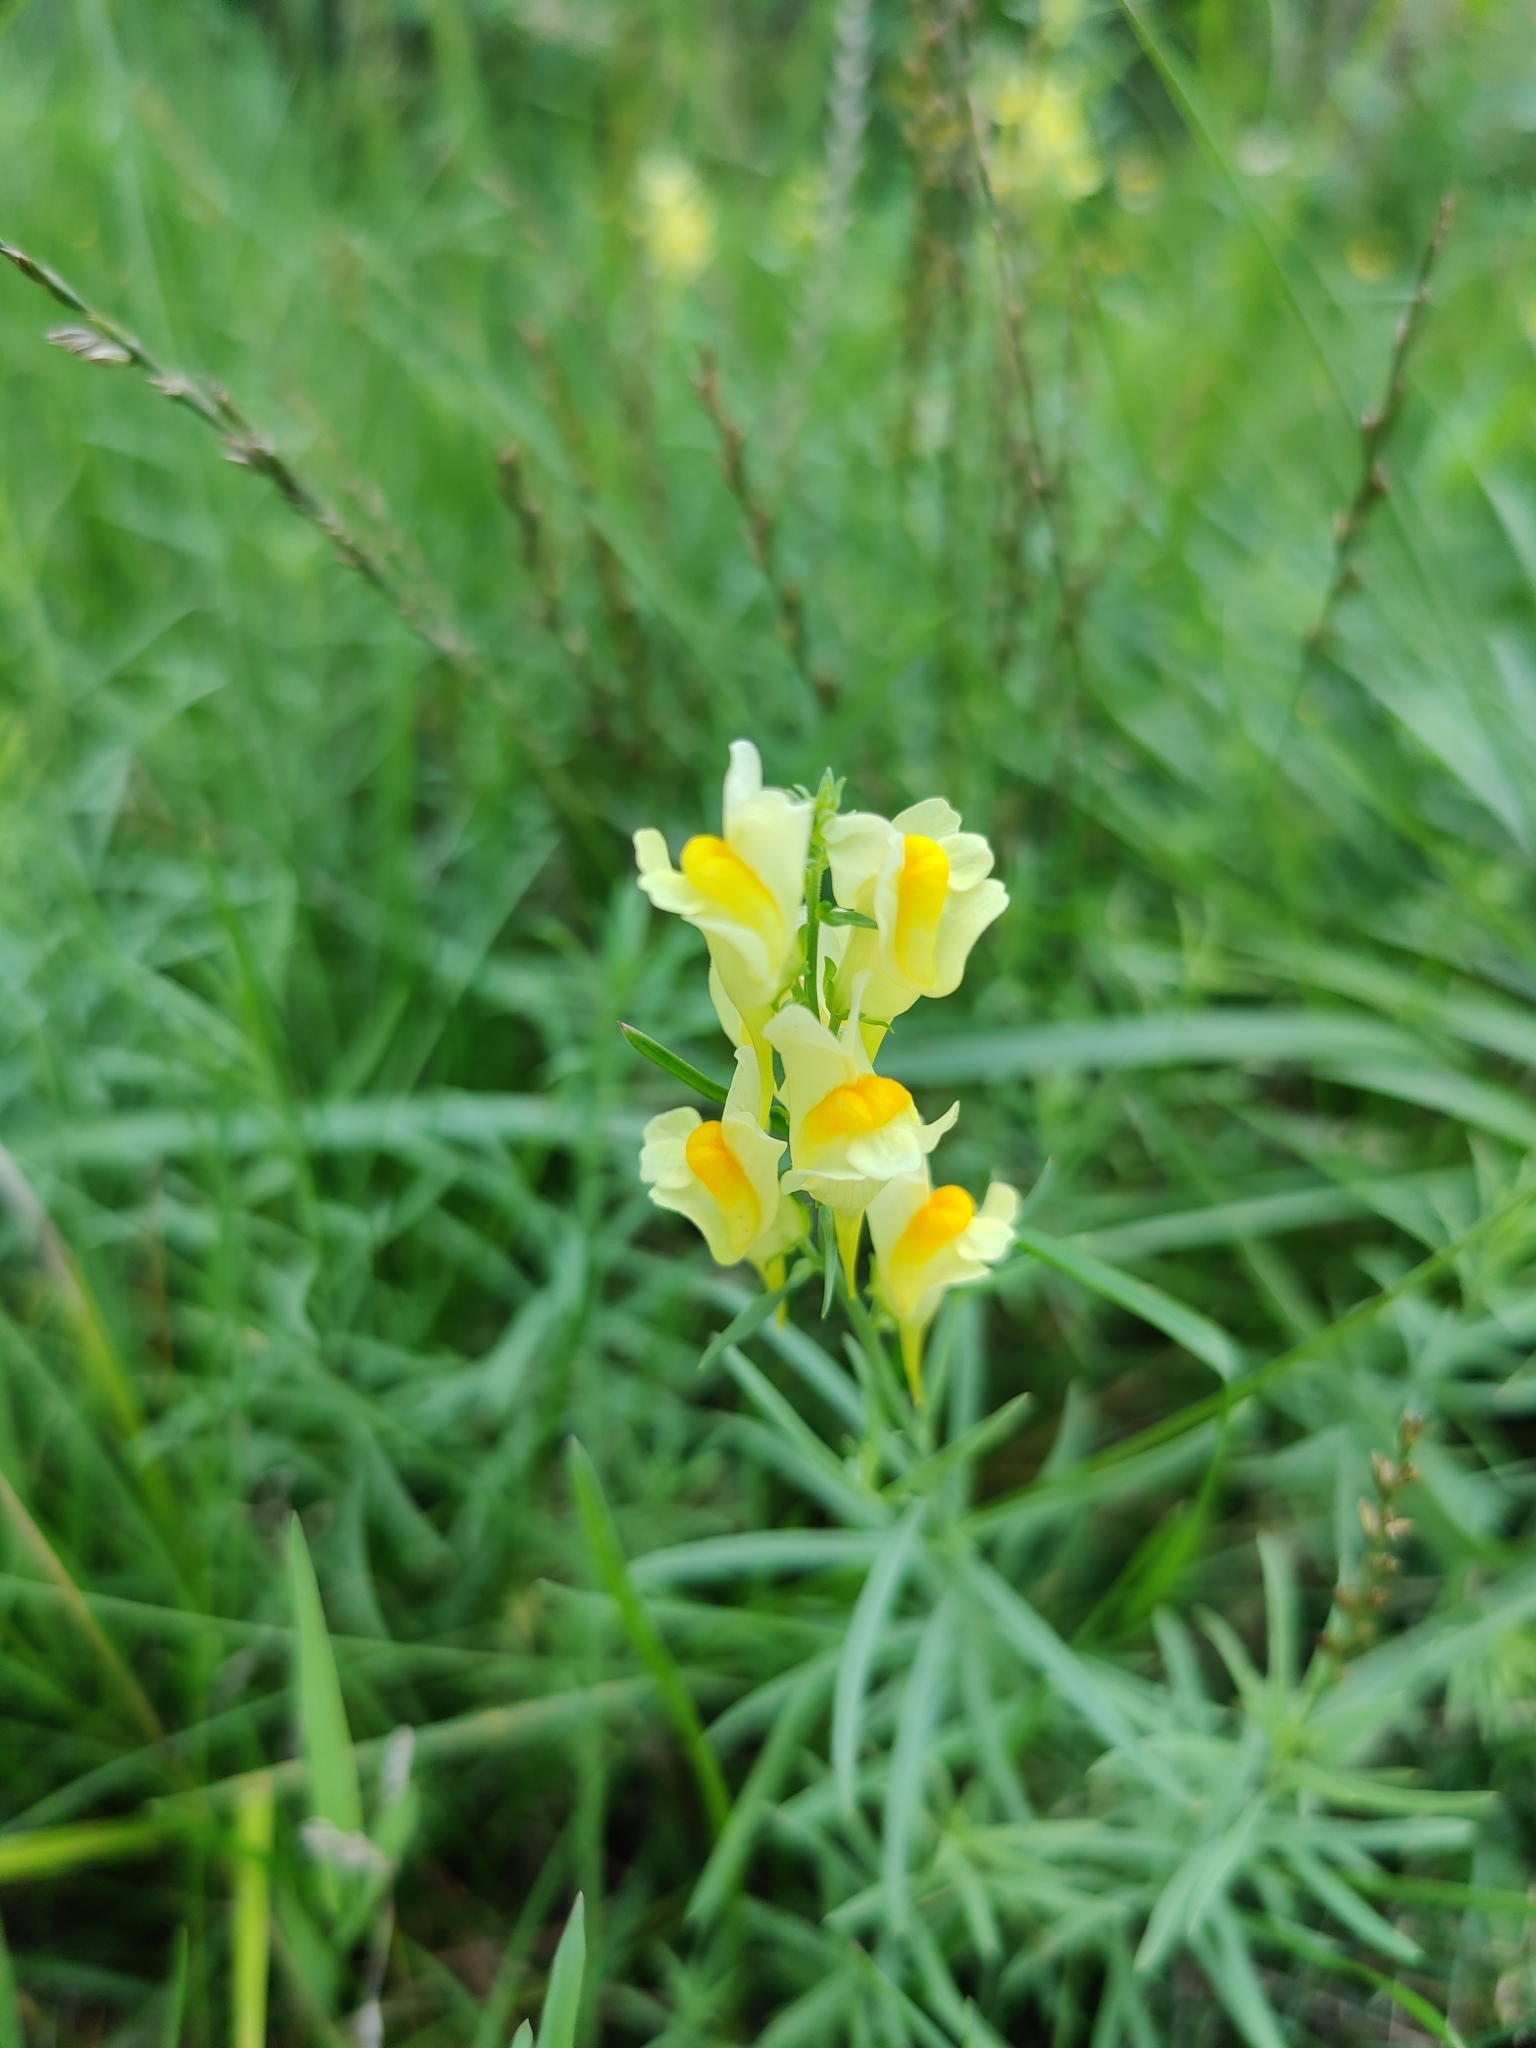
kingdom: Plantae
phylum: Tracheophyta
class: Magnoliopsida
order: Lamiales
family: Plantaginaceae
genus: Linaria
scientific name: Linaria vulgaris
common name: Butter and eggs
